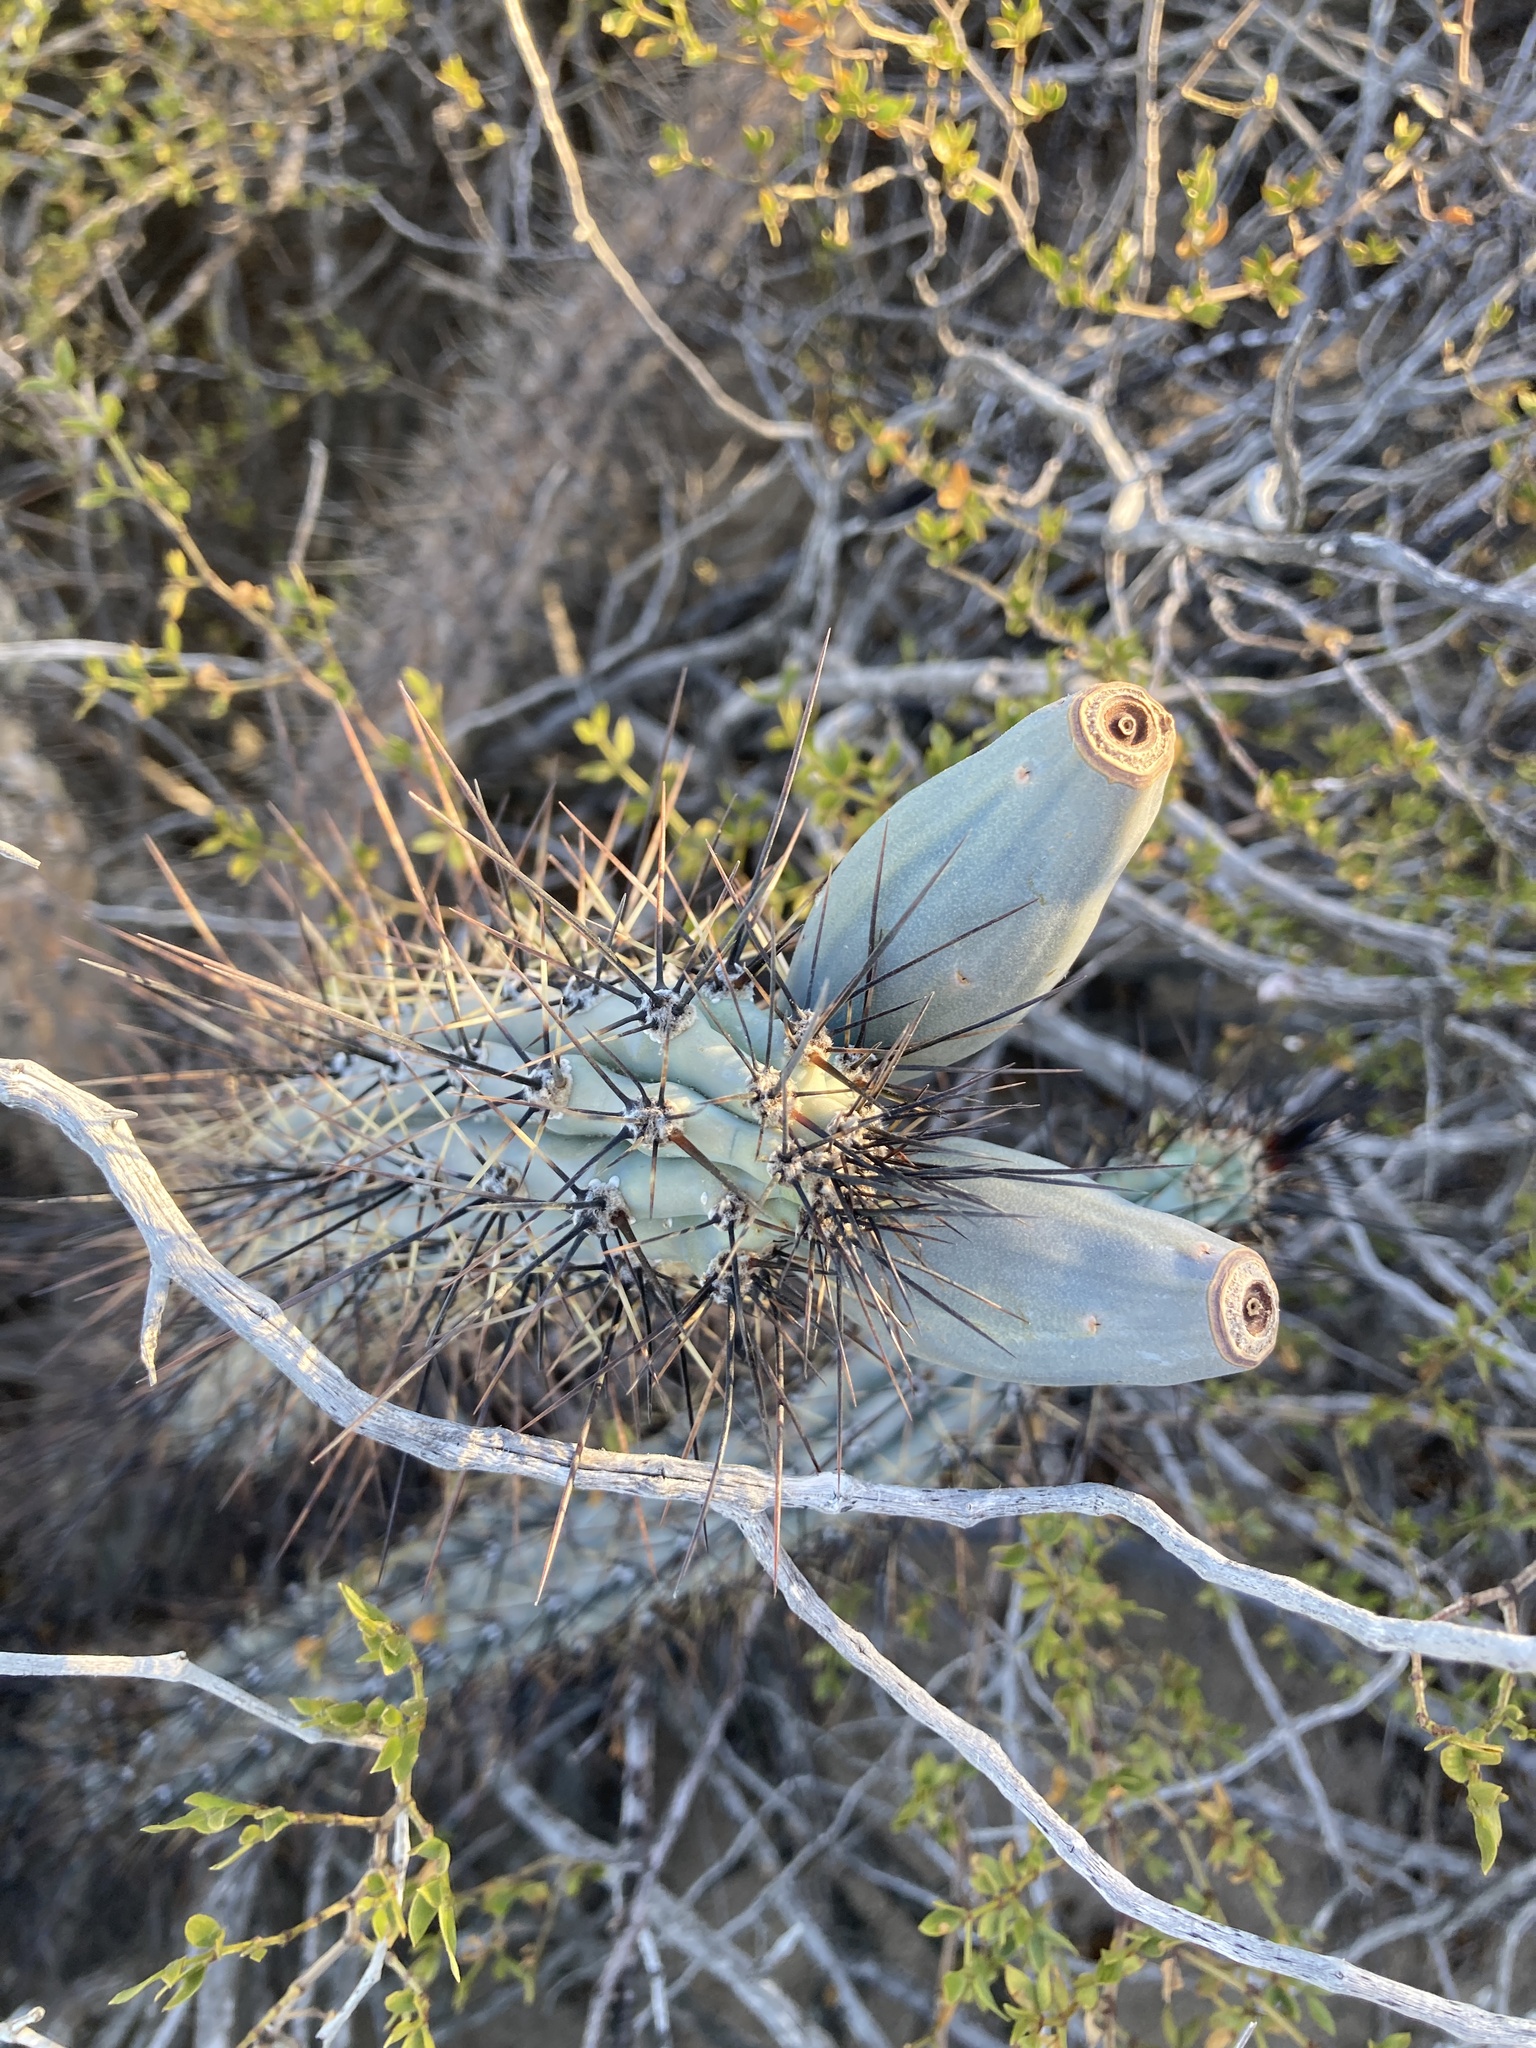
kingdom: Plantae
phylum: Tracheophyta
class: Magnoliopsida
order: Caryophyllales
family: Cactaceae
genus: Cereus
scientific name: Cereus aethiops
